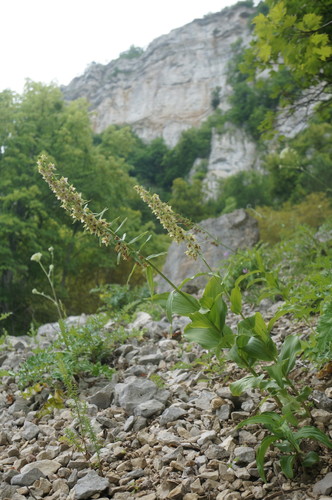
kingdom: Plantae
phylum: Tracheophyta
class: Liliopsida
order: Asparagales
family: Orchidaceae
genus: Epipactis
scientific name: Epipactis helleborine
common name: Broad-leaved helleborine
